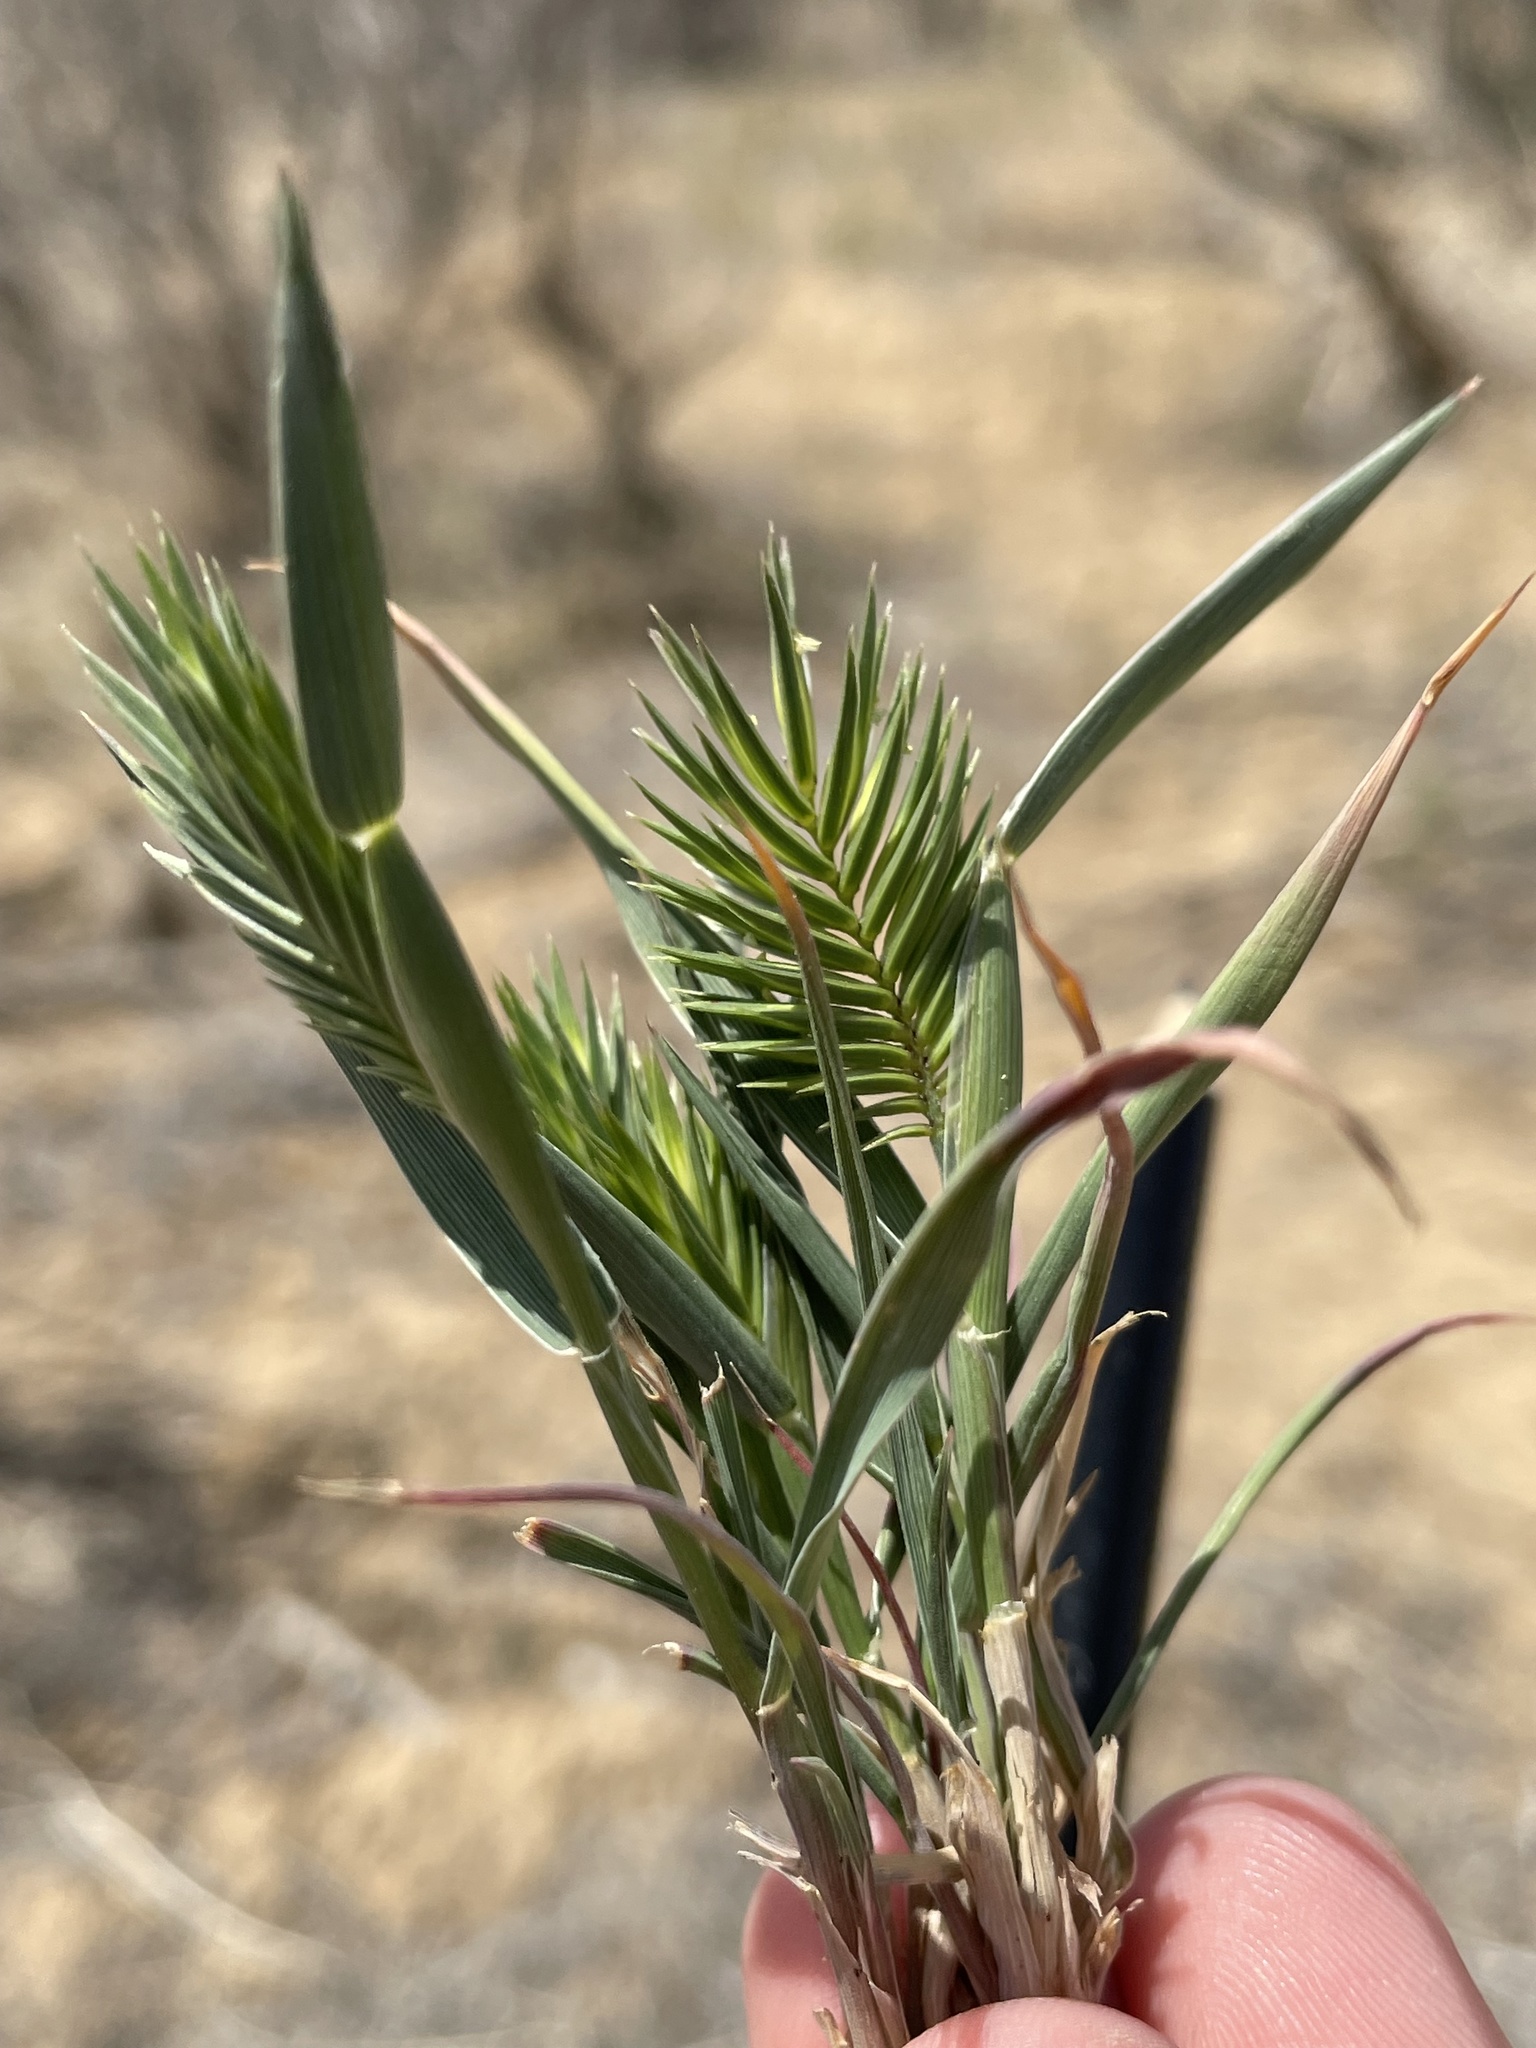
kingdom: Plantae
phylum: Tracheophyta
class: Liliopsida
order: Poales
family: Poaceae
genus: Eremopyrum
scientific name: Eremopyrum triticeum
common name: Annual wheatgrass
